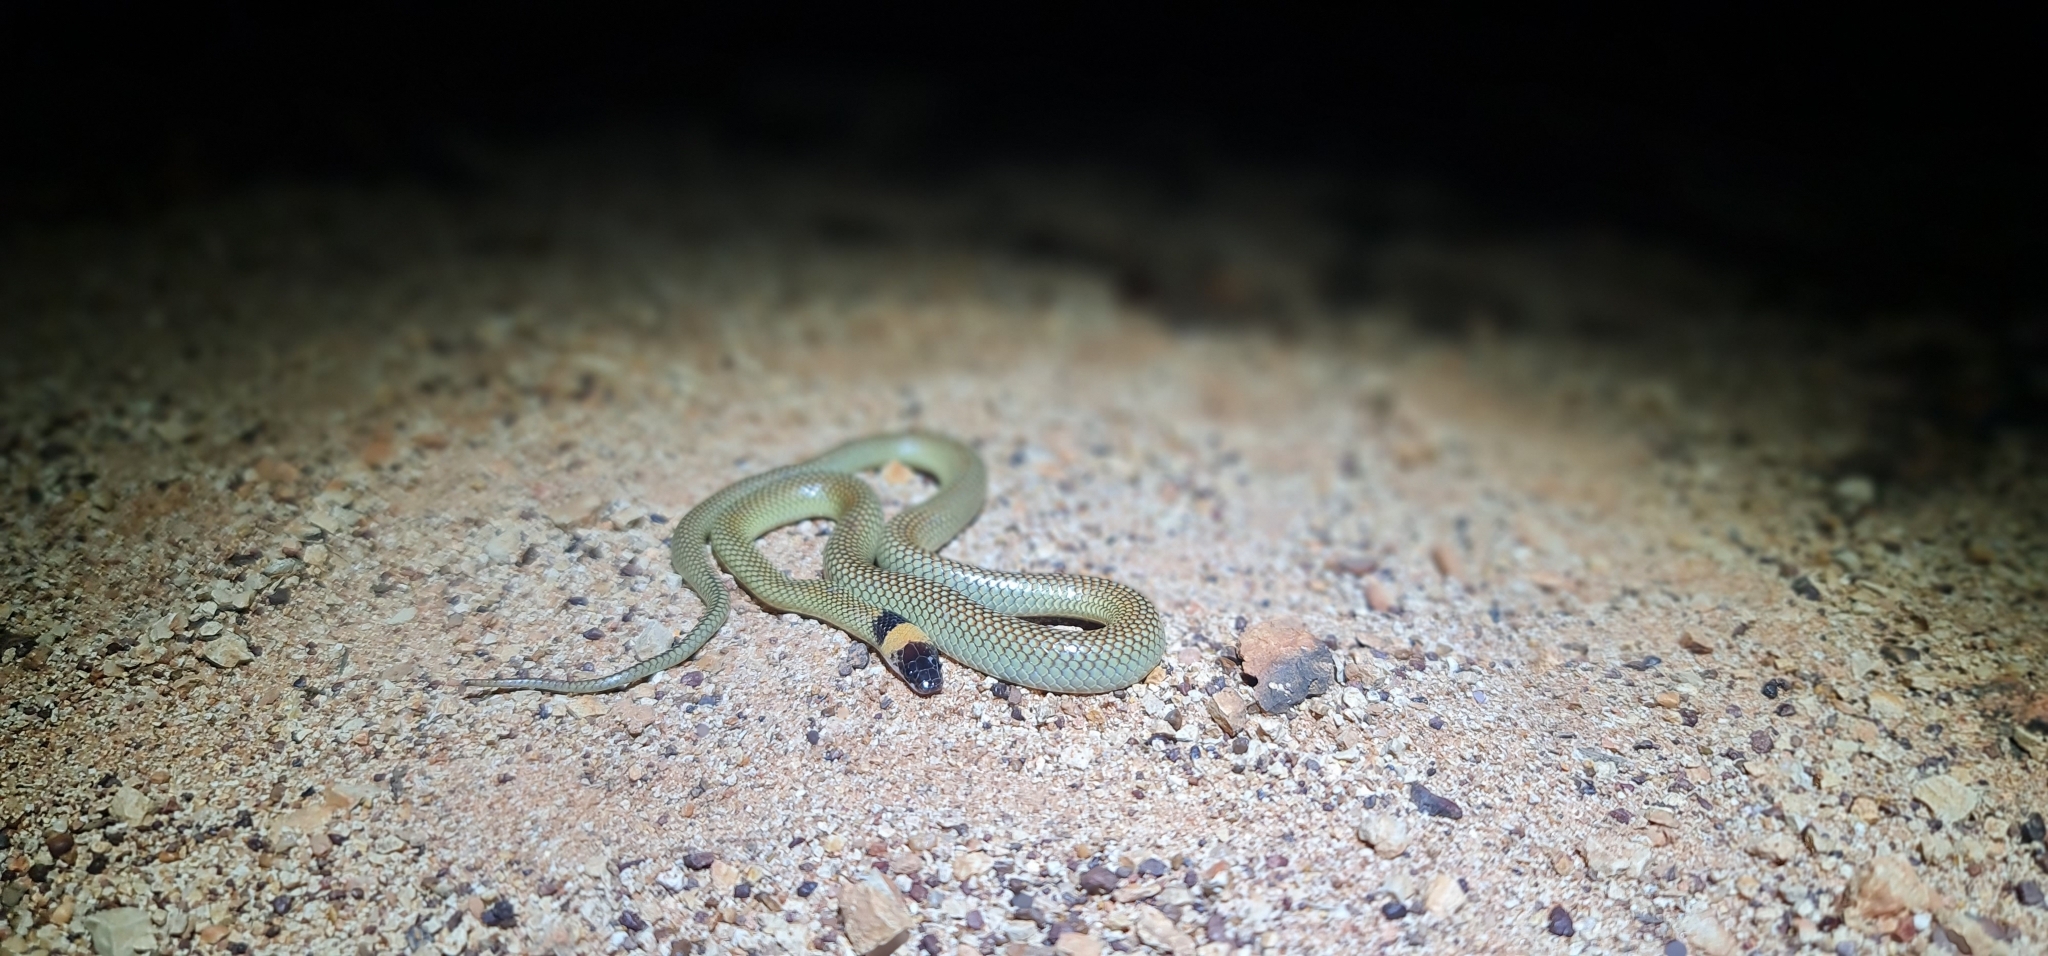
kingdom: Animalia
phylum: Chordata
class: Squamata
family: Elapidae
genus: Furina
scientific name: Furina ornata
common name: Orange-naped snake
